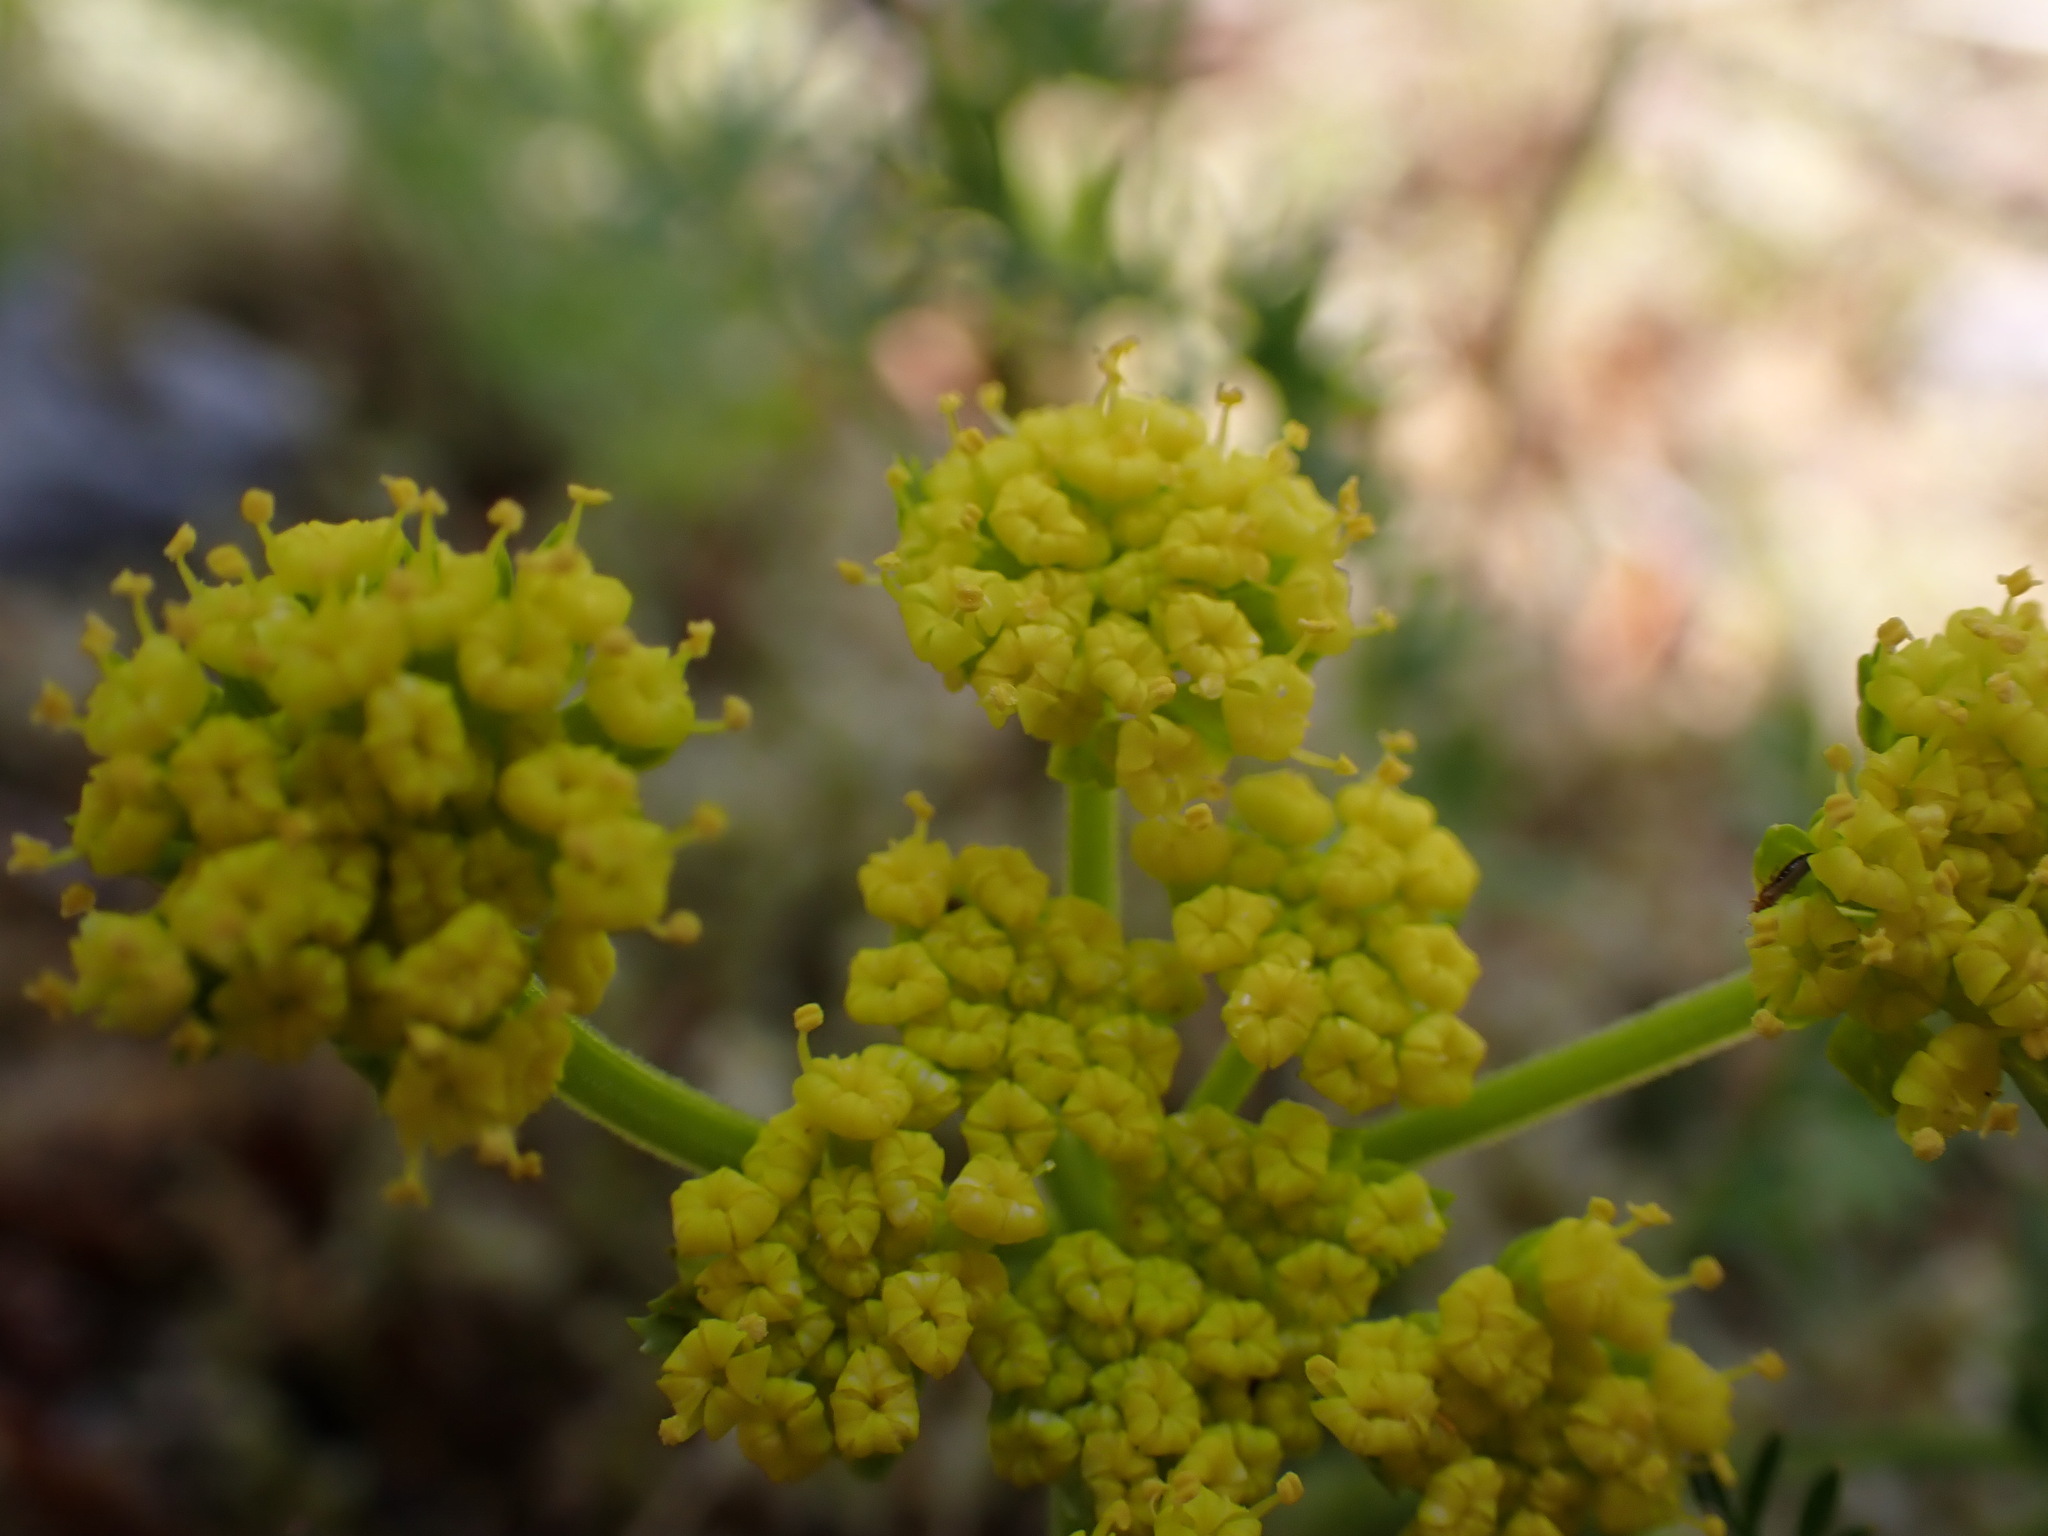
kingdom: Plantae
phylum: Tracheophyta
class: Magnoliopsida
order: Apiales
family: Apiaceae
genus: Lomatium
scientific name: Lomatium utriculatum
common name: Fine-leaf desert-parsley
